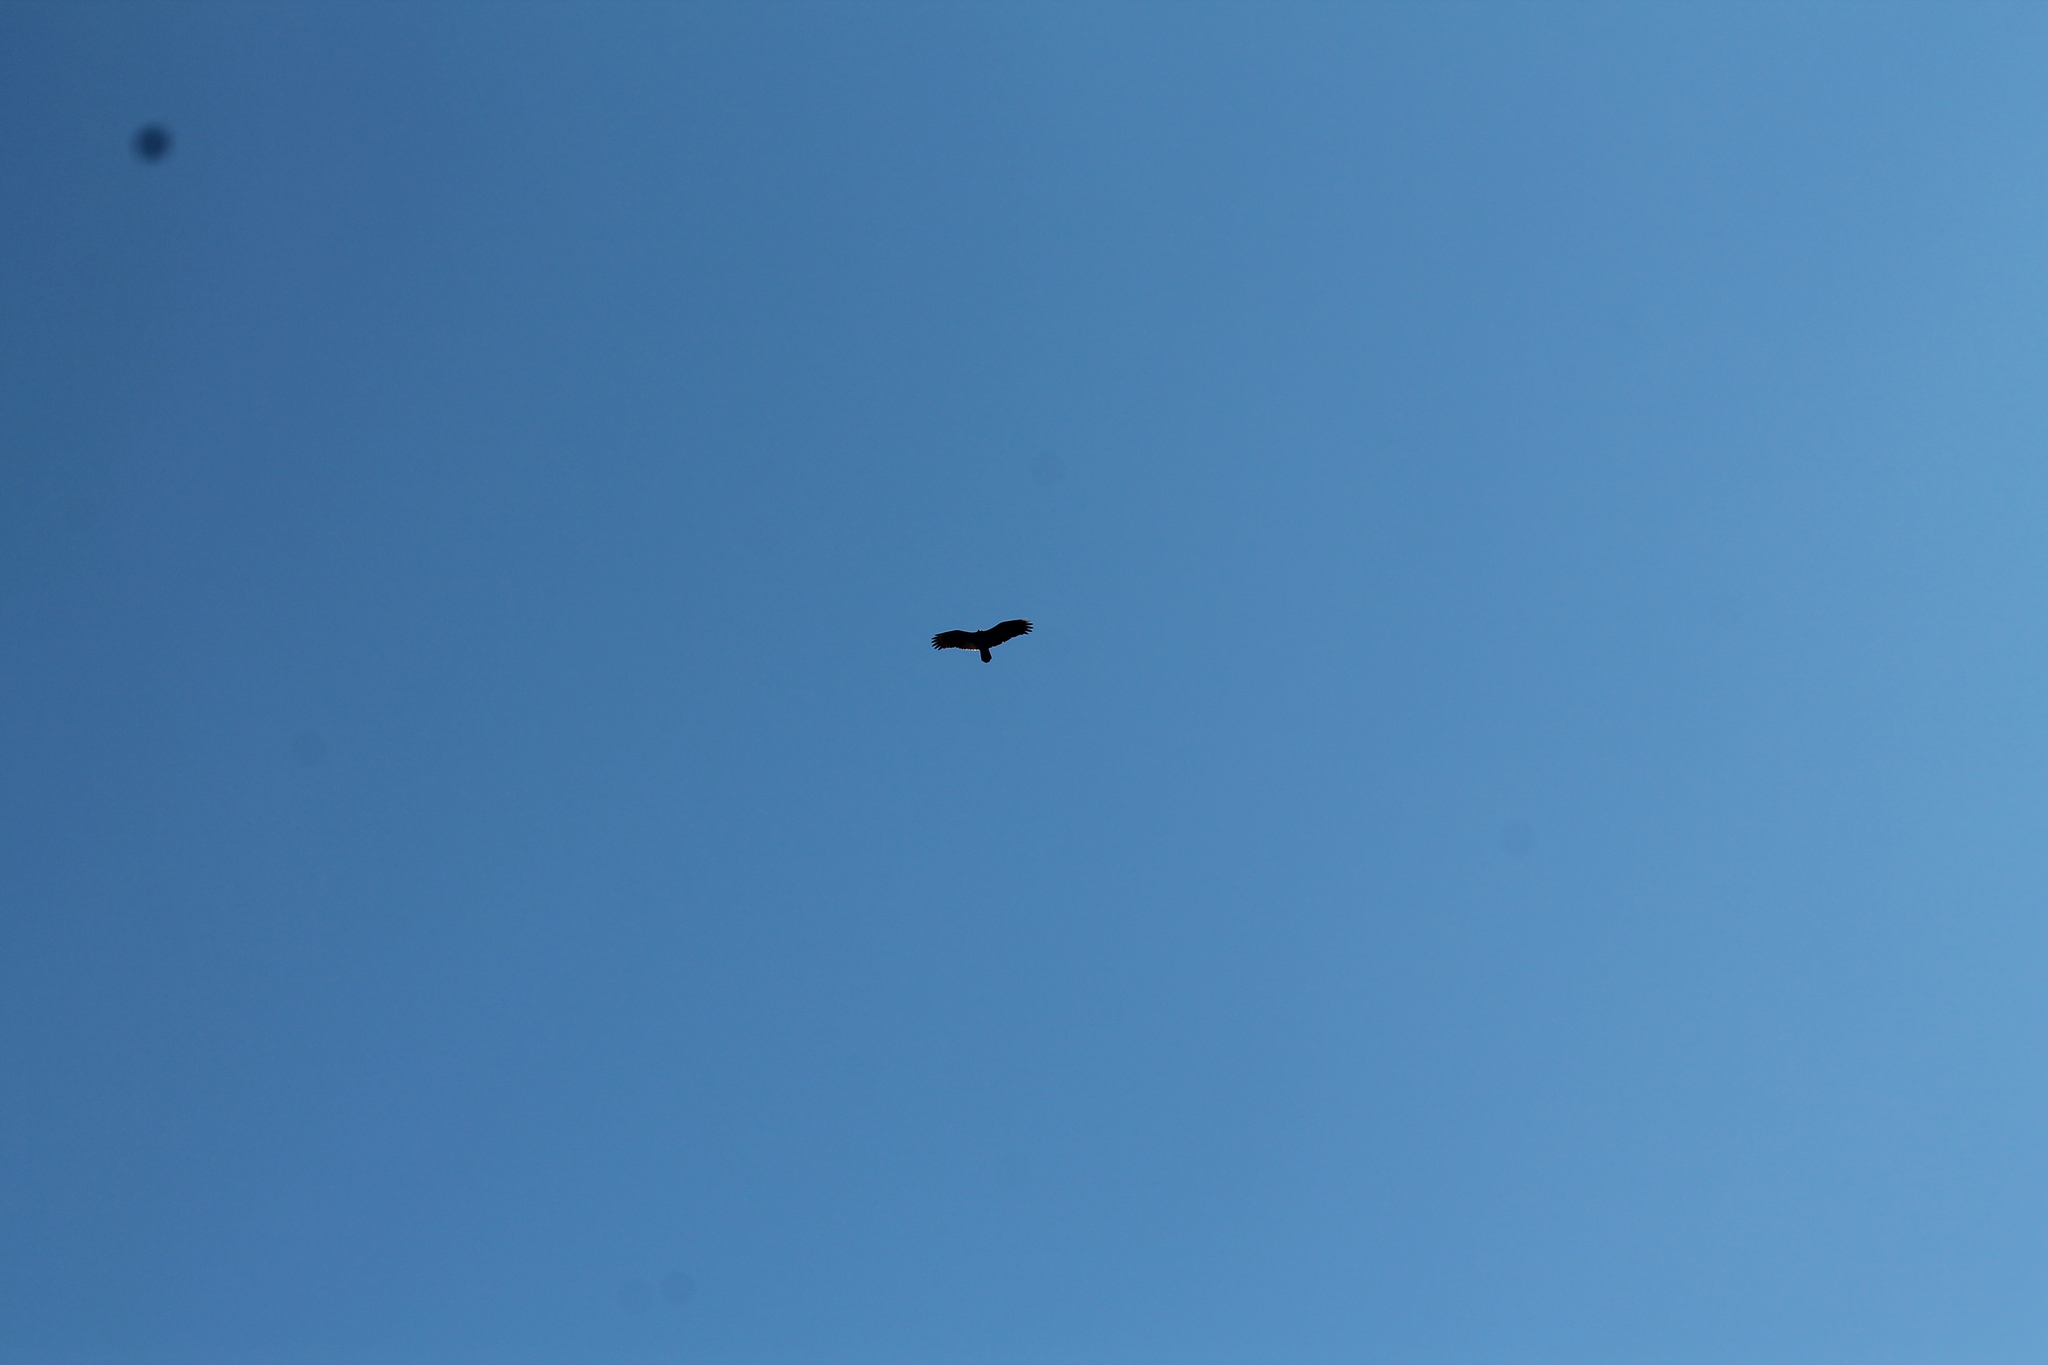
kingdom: Animalia
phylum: Chordata
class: Aves
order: Accipitriformes
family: Cathartidae
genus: Cathartes
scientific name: Cathartes aura
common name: Turkey vulture
